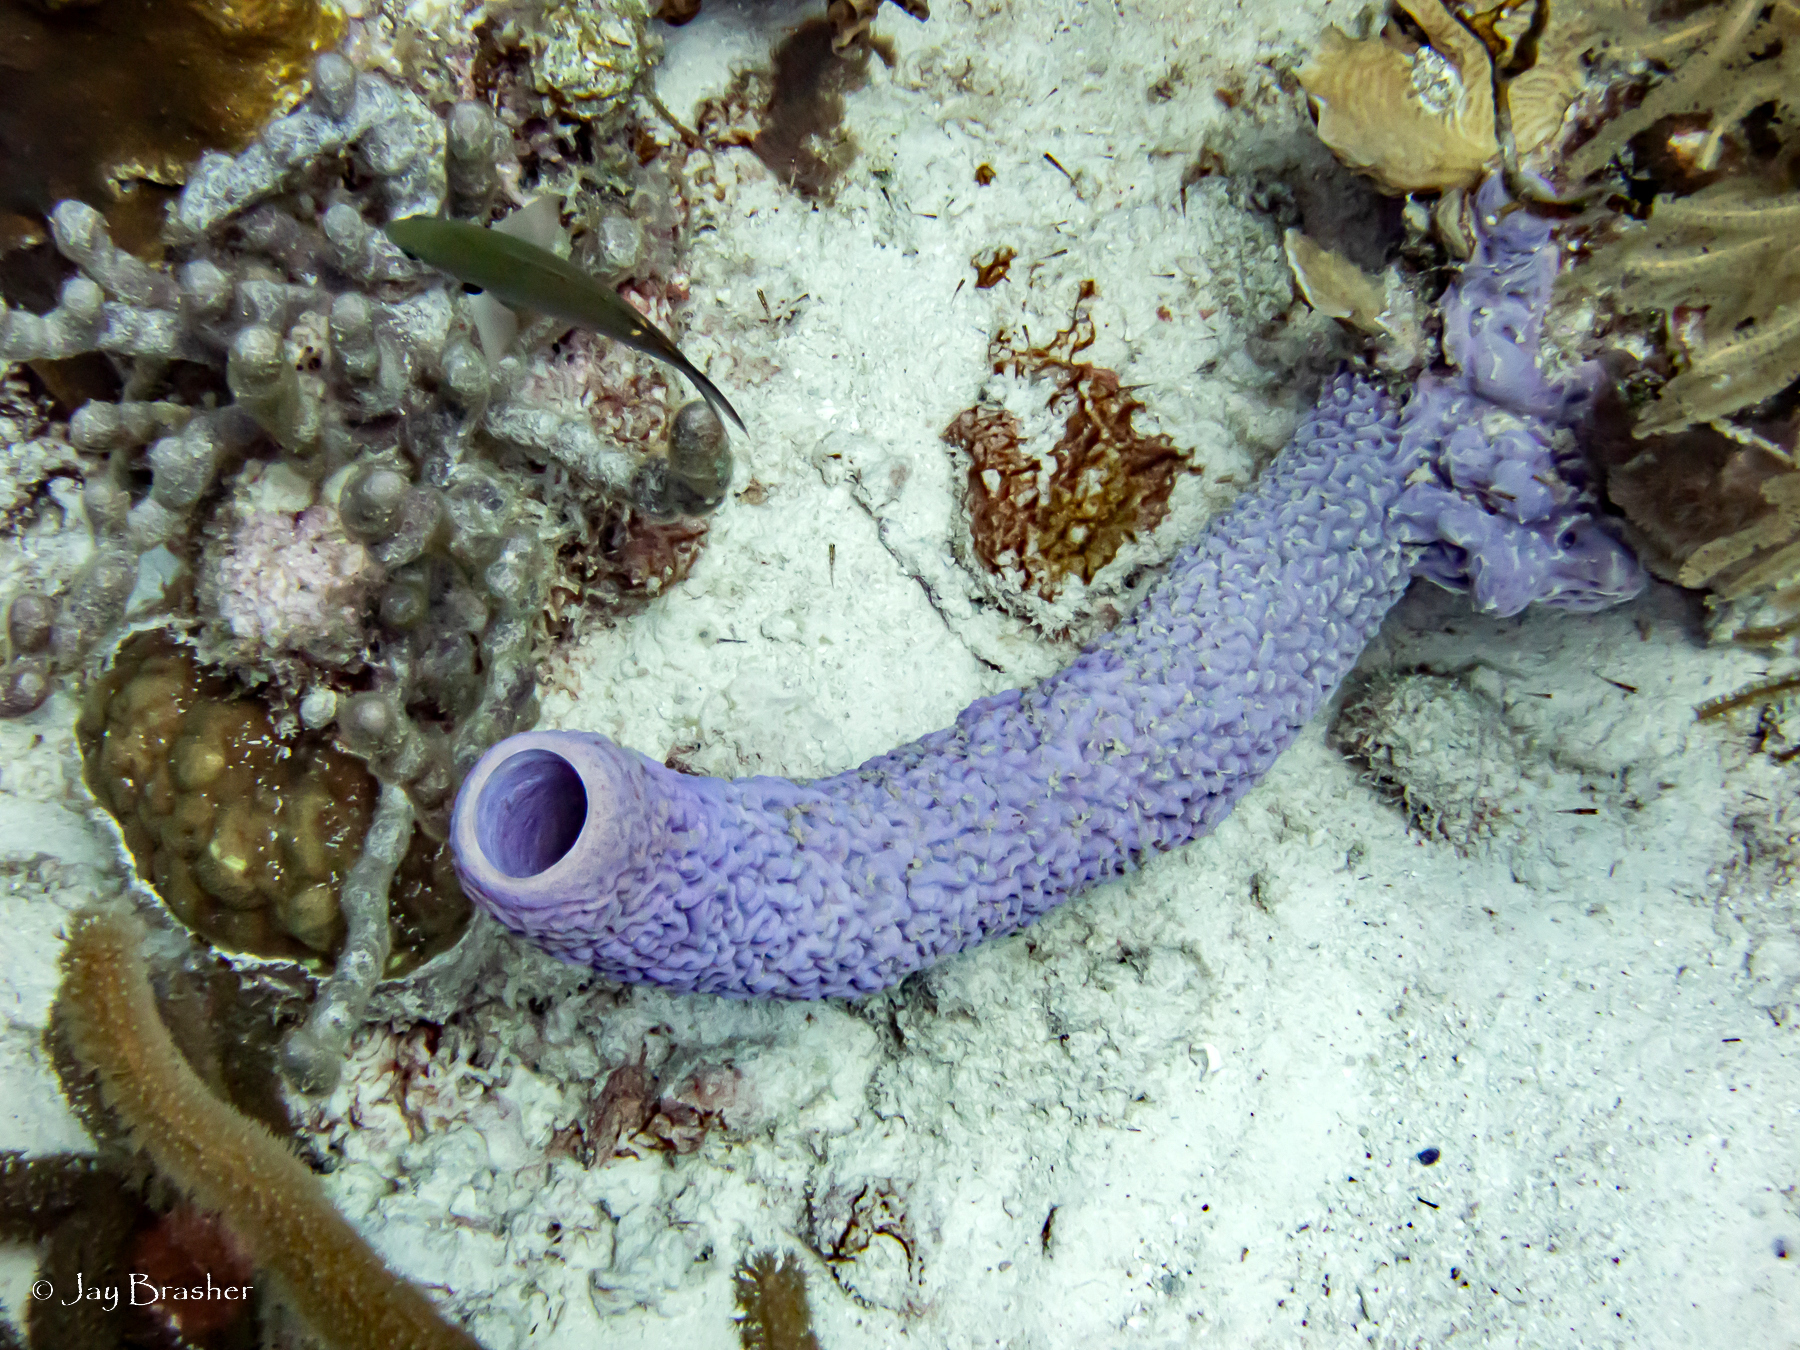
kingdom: Animalia
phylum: Porifera
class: Demospongiae
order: Verongiida
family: Aplysinidae
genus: Aplysina
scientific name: Aplysina archeri
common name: Stove-pipe sponge
